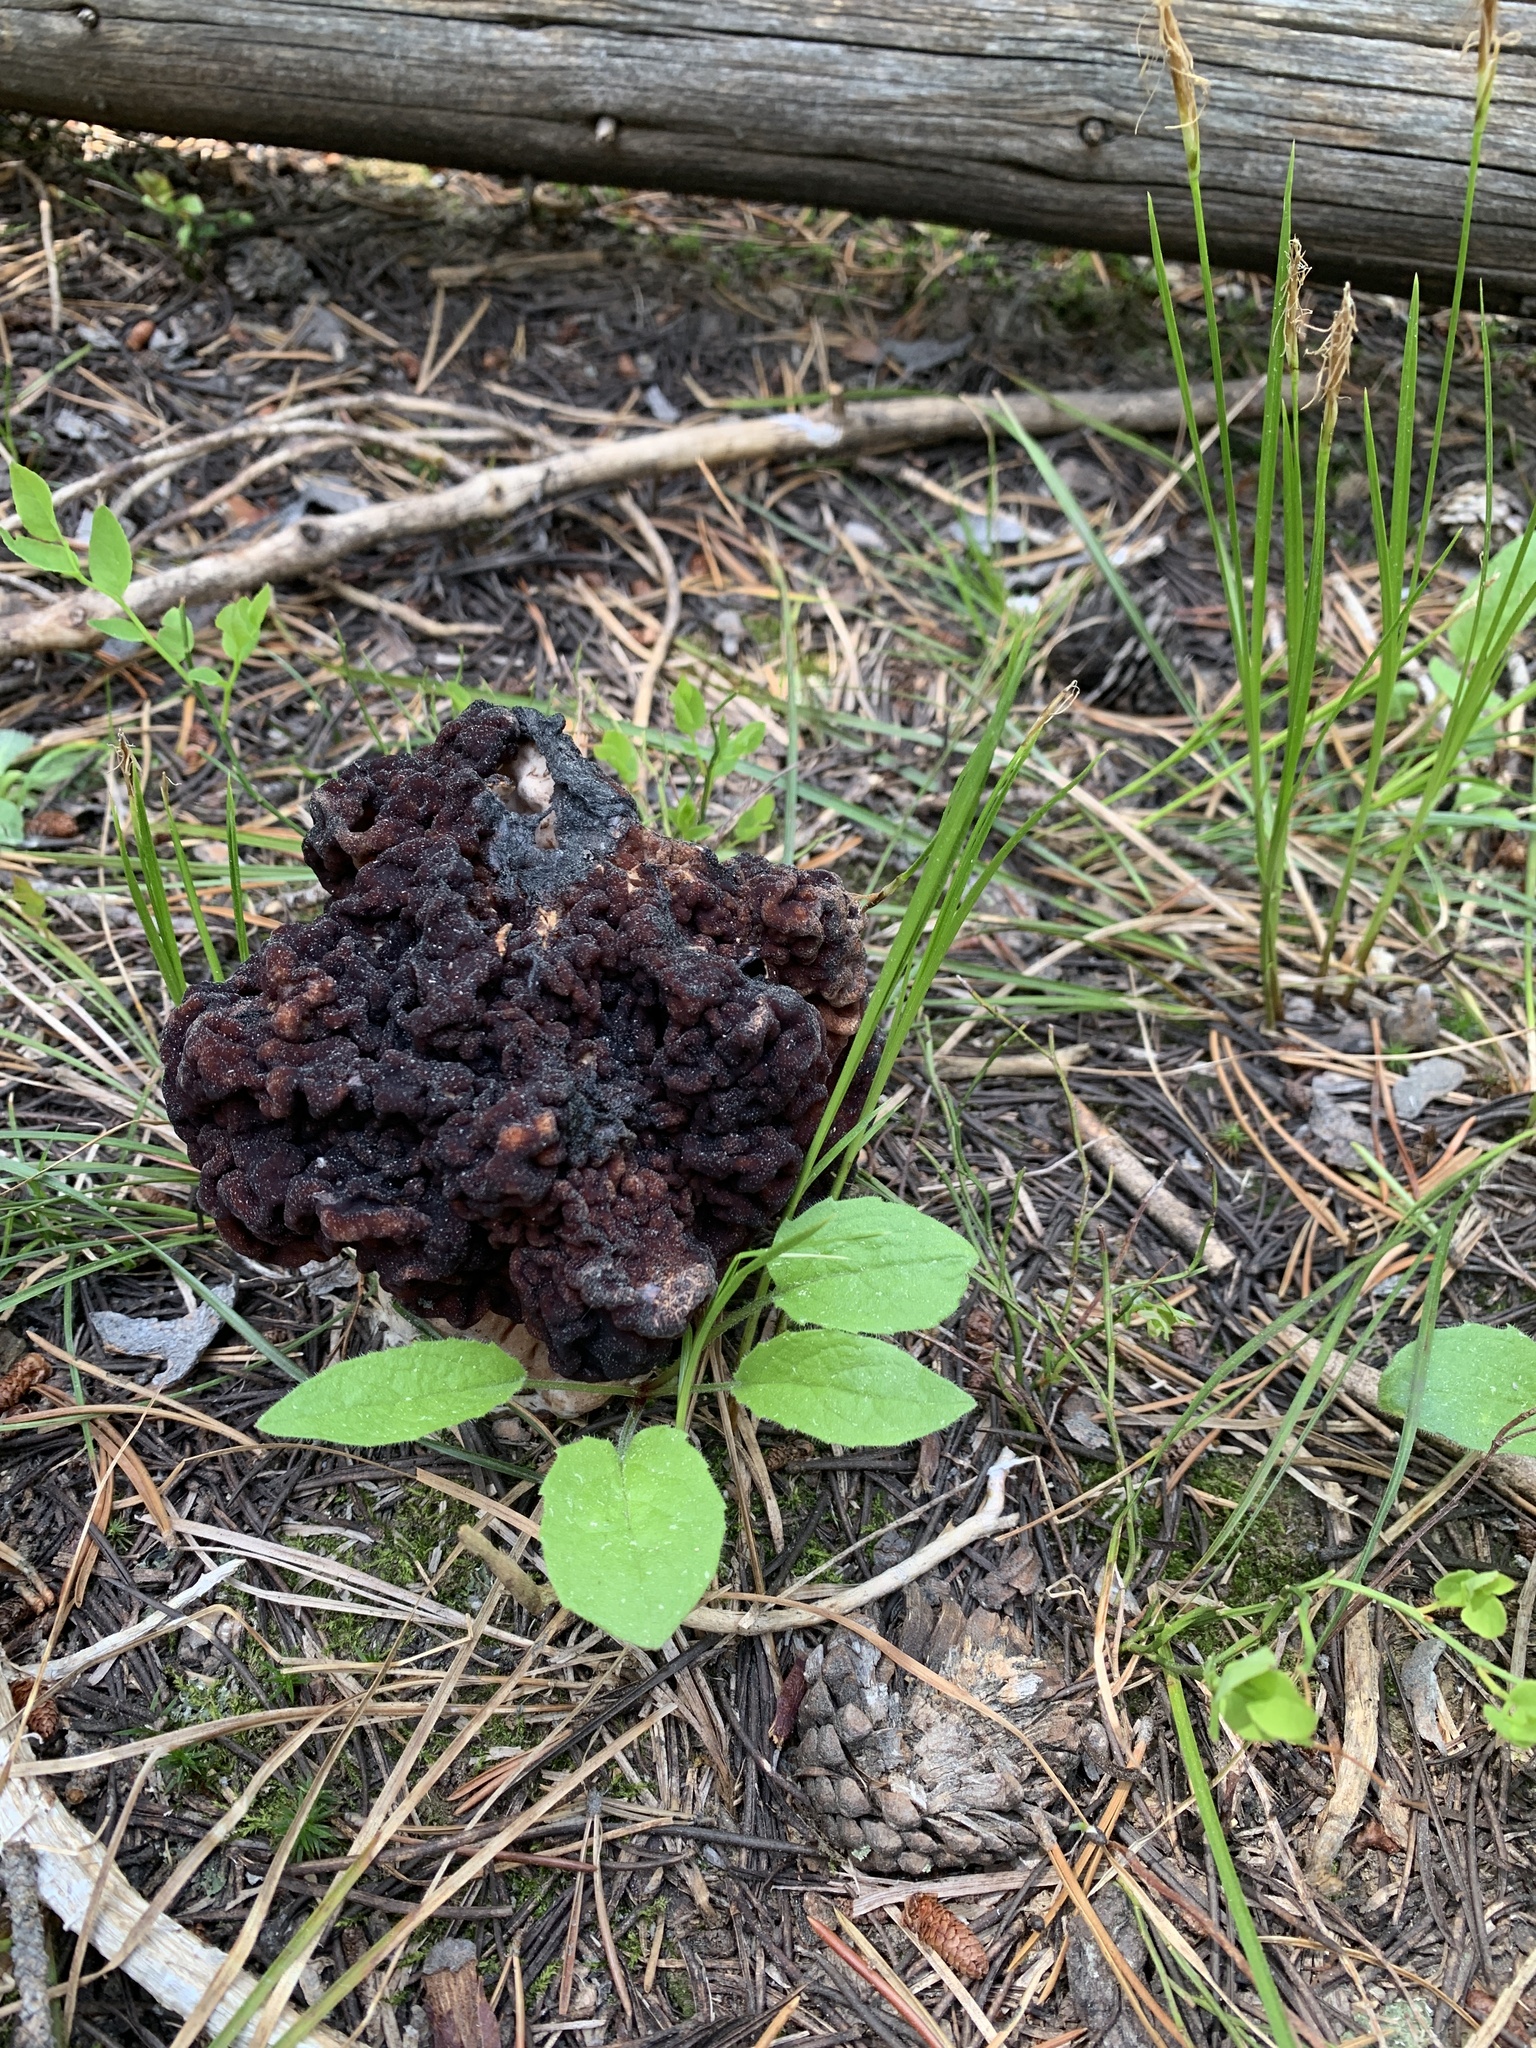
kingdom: Fungi
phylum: Ascomycota
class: Pezizomycetes
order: Pezizales
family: Discinaceae
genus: Gyromitra
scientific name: Gyromitra esculenta
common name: False morel
